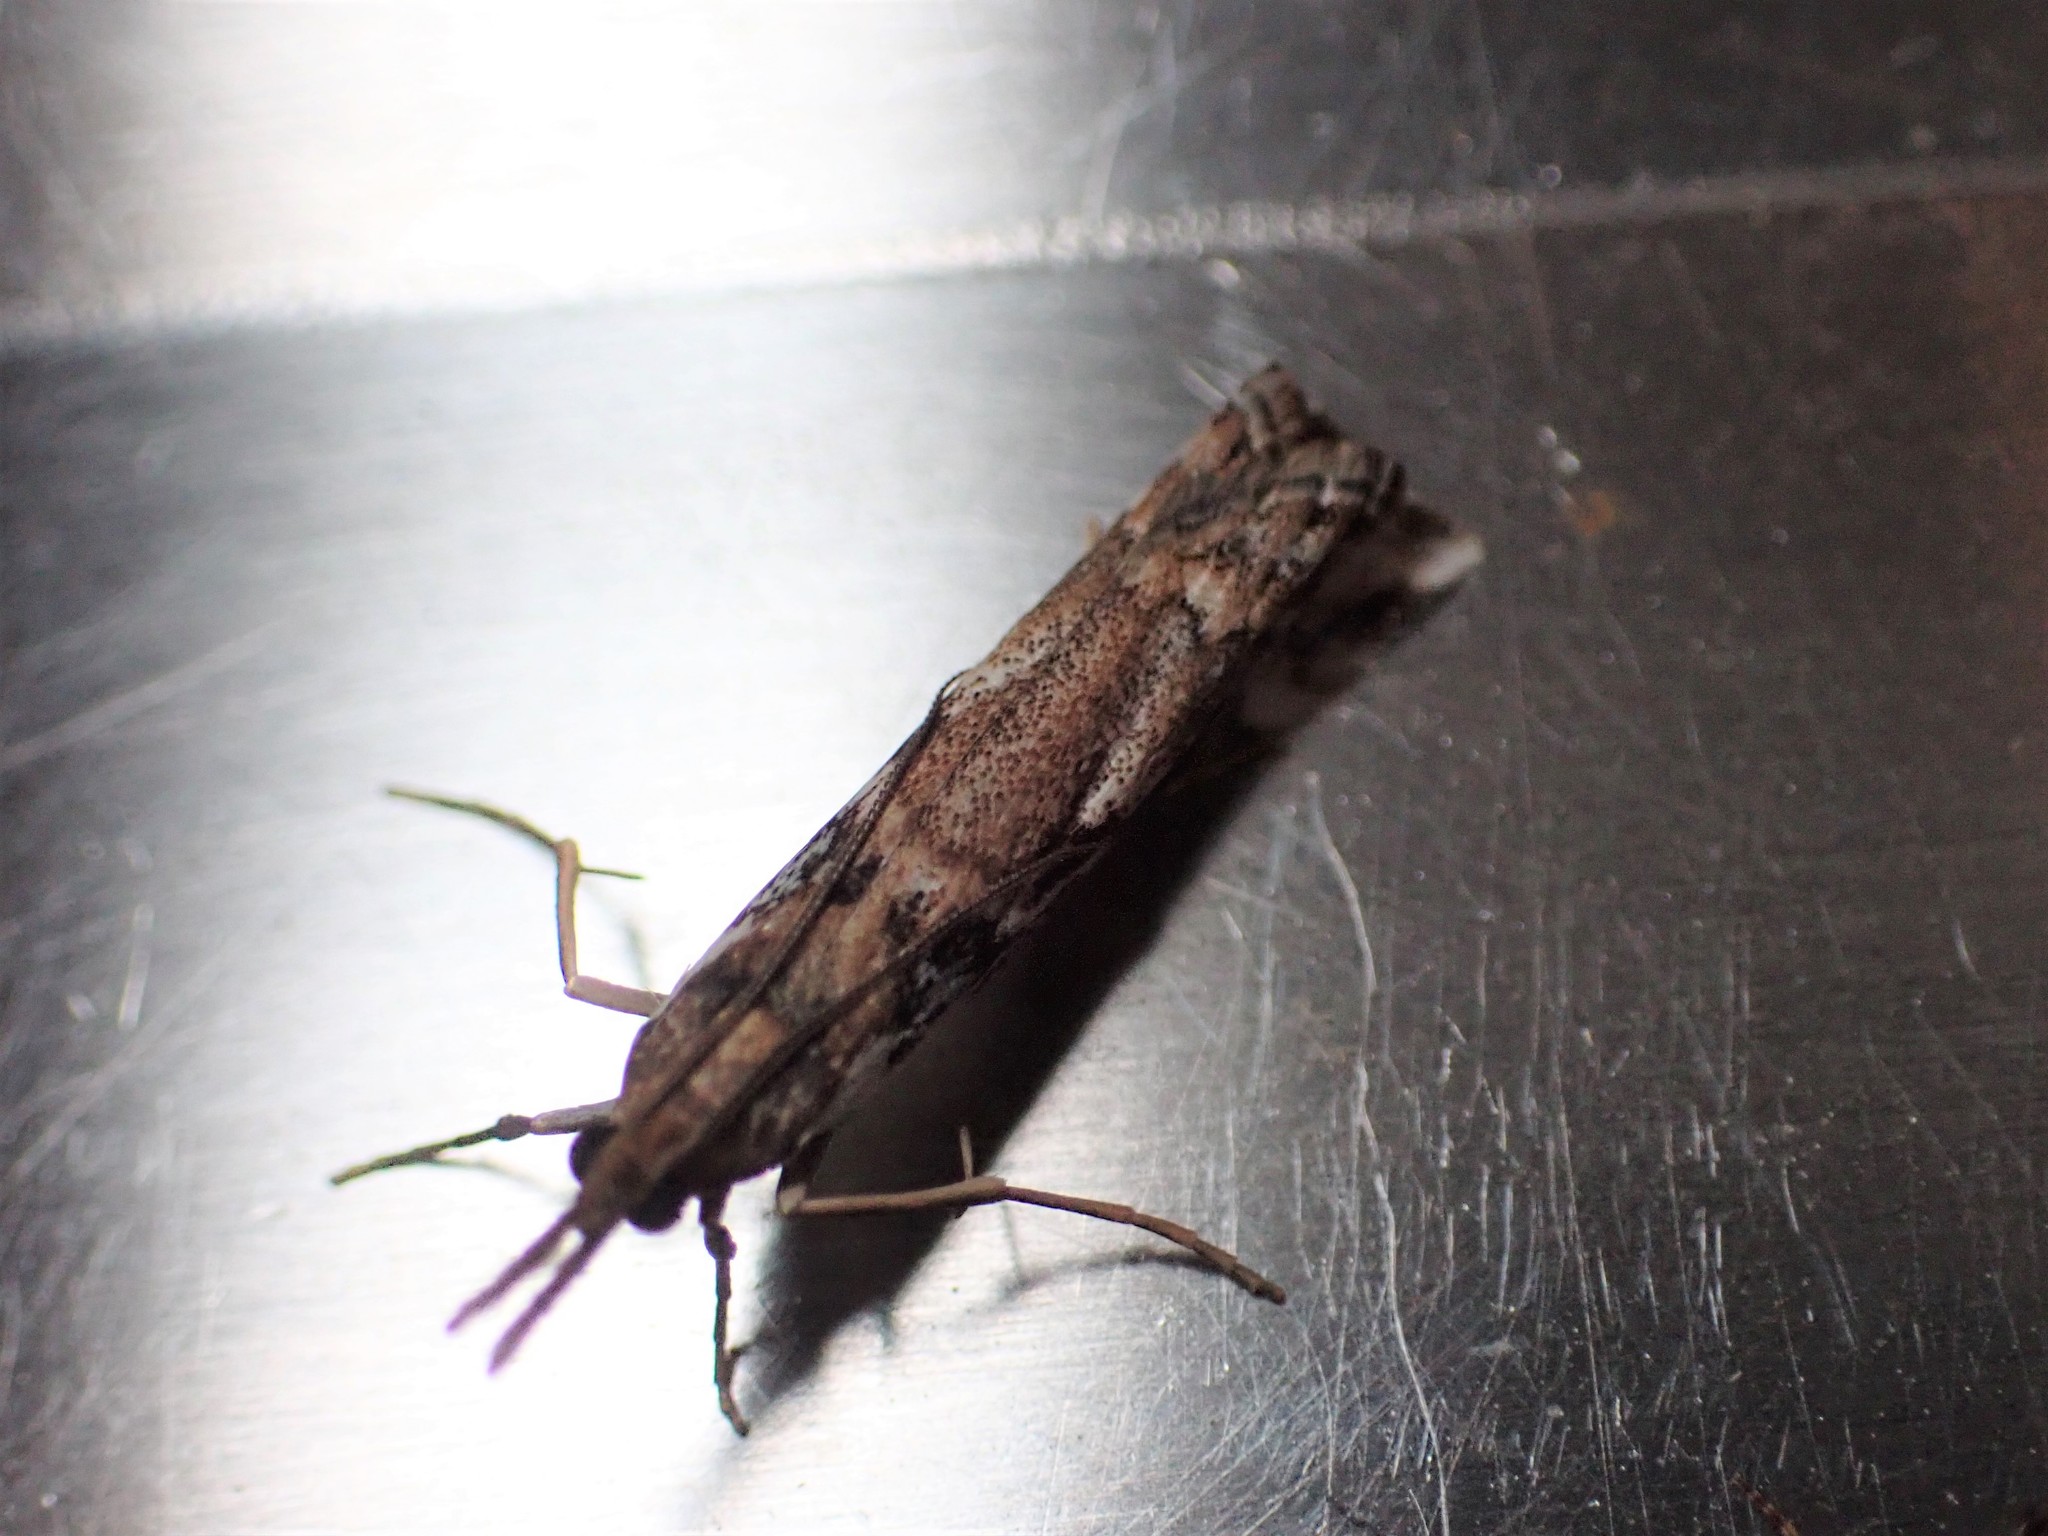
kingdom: Animalia
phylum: Arthropoda
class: Insecta
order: Lepidoptera
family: Crambidae
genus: Orocrambus
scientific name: Orocrambus vulgaris
